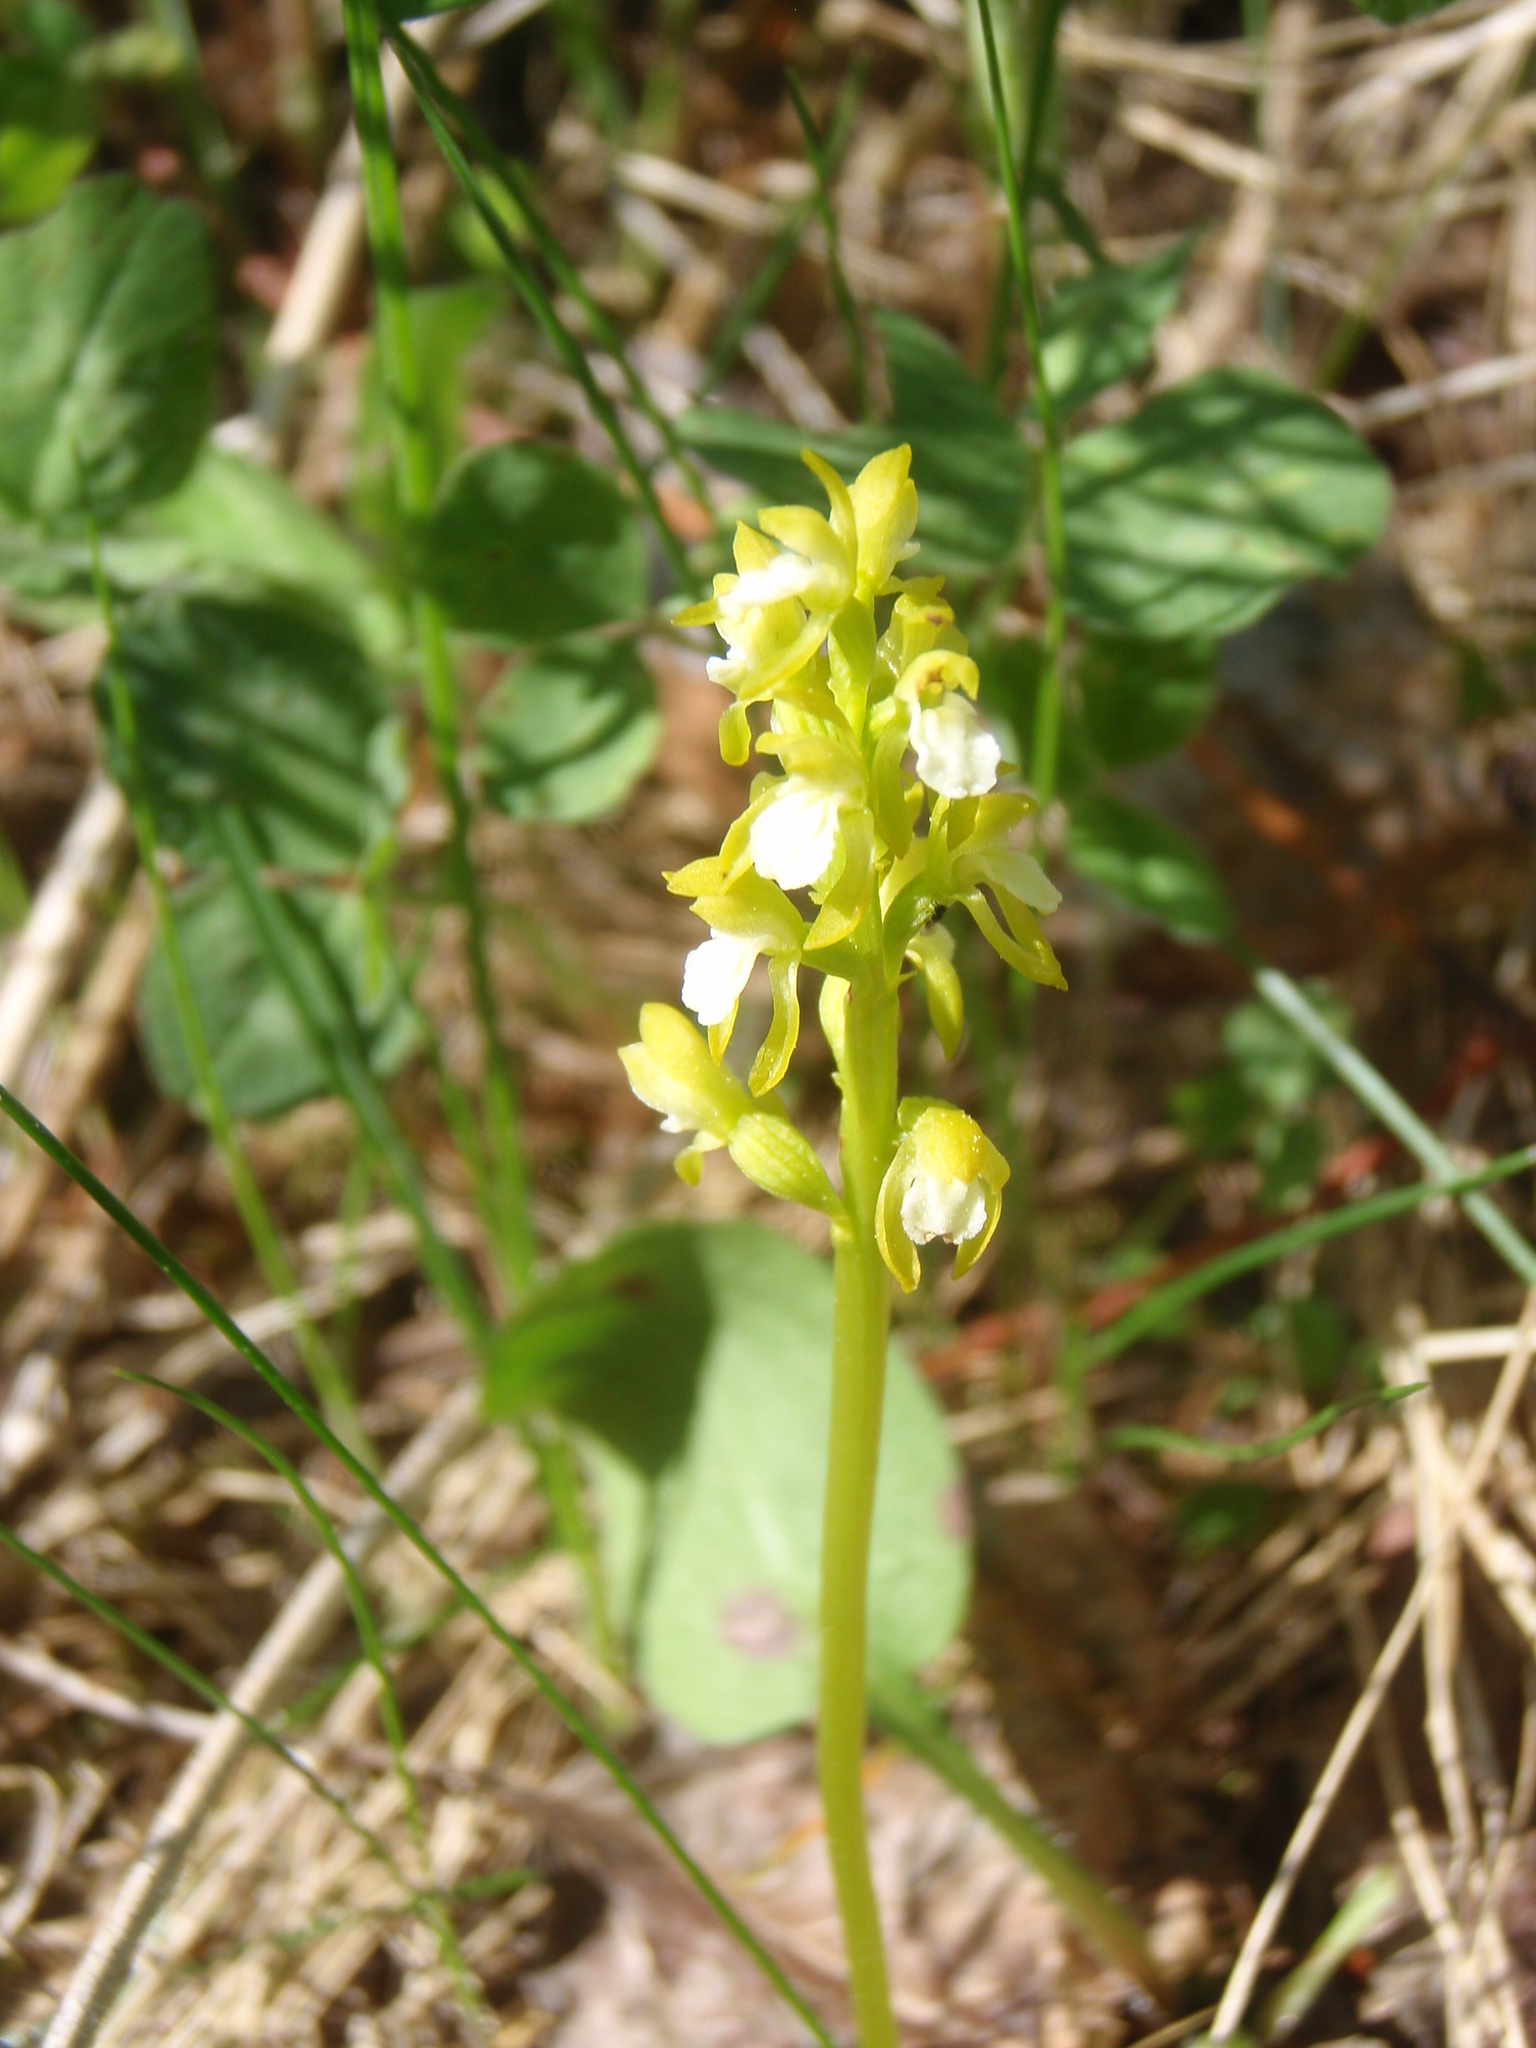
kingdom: Plantae
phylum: Tracheophyta
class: Liliopsida
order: Asparagales
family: Orchidaceae
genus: Corallorhiza
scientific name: Corallorhiza trifida
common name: Yellow coralroot
